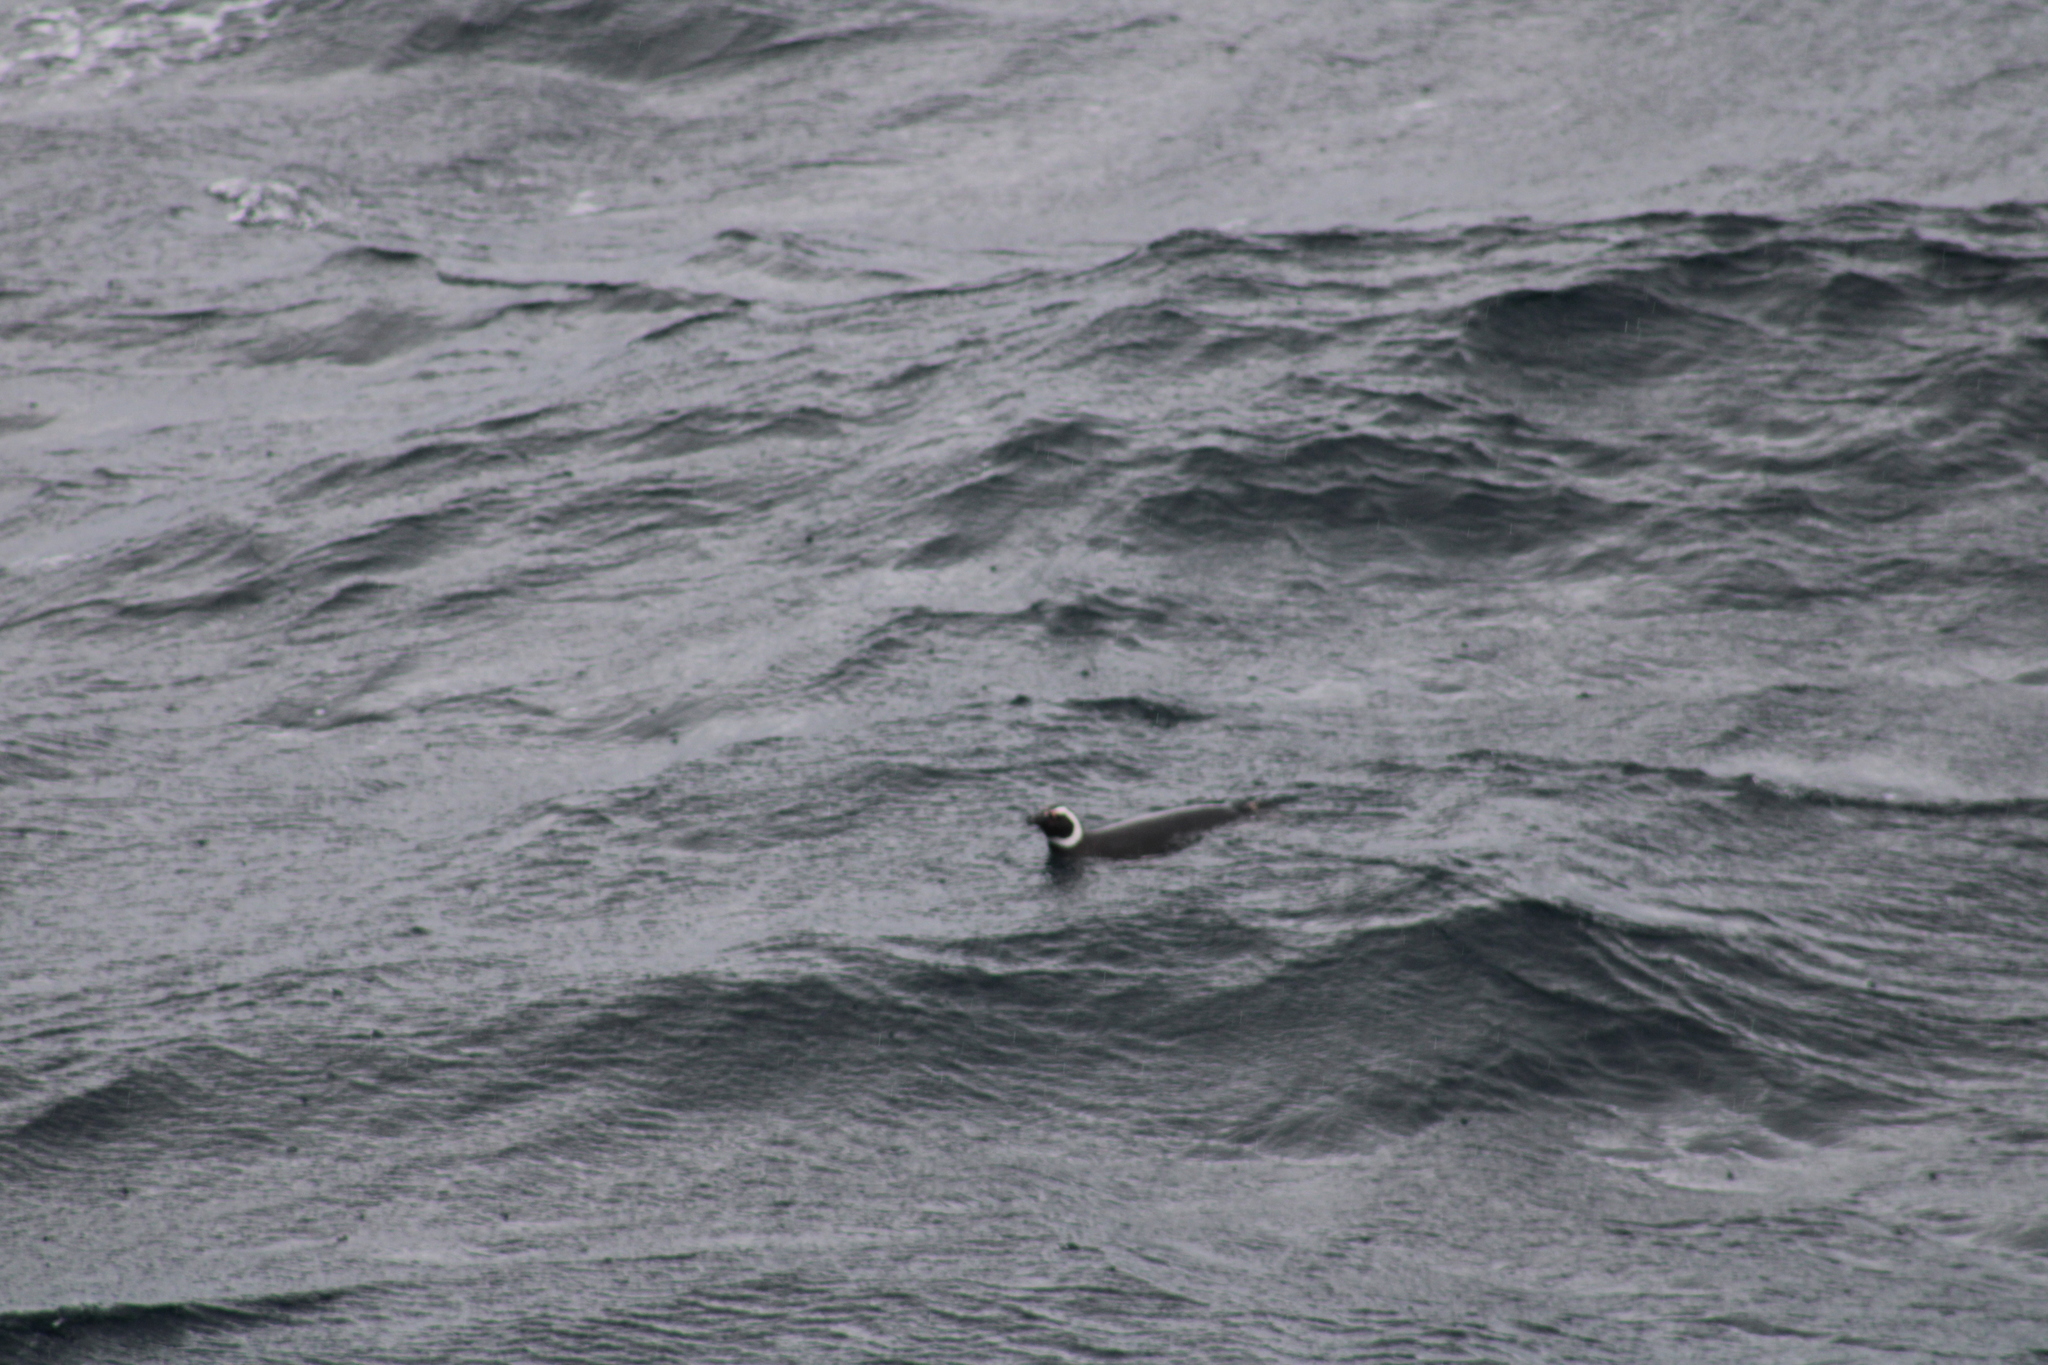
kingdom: Animalia
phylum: Chordata
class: Aves
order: Sphenisciformes
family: Spheniscidae
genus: Spheniscus
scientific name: Spheniscus magellanicus
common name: Magellanic penguin
